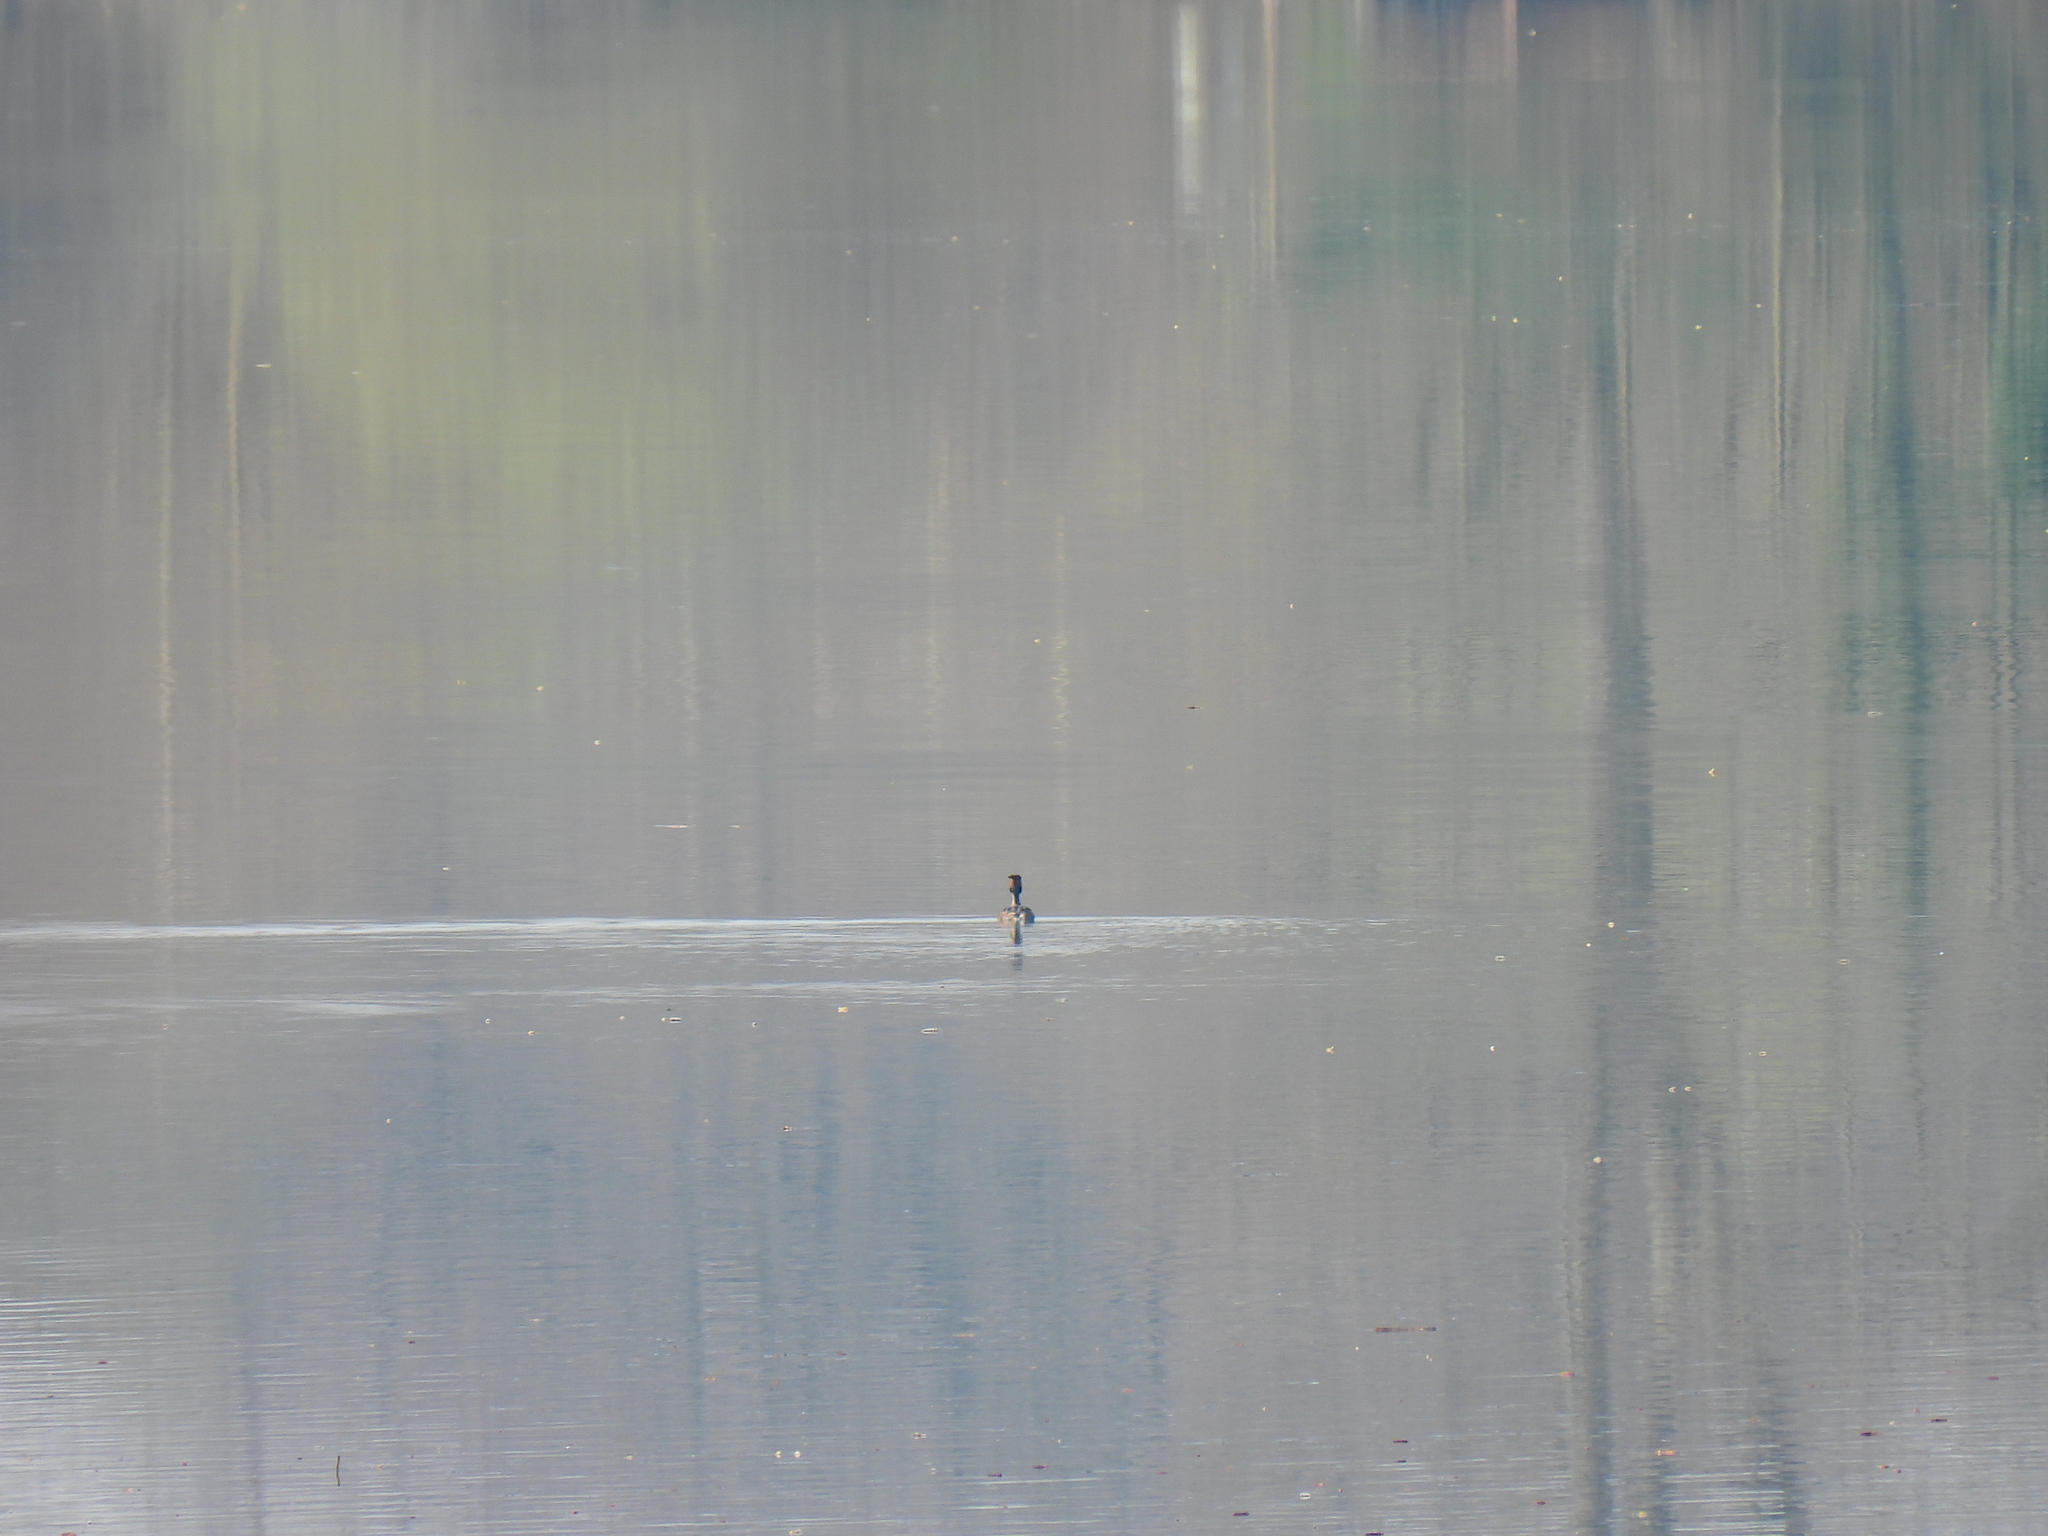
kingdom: Animalia
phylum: Chordata
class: Aves
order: Podicipediformes
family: Podicipedidae
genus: Podiceps
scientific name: Podiceps cristatus
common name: Great crested grebe
